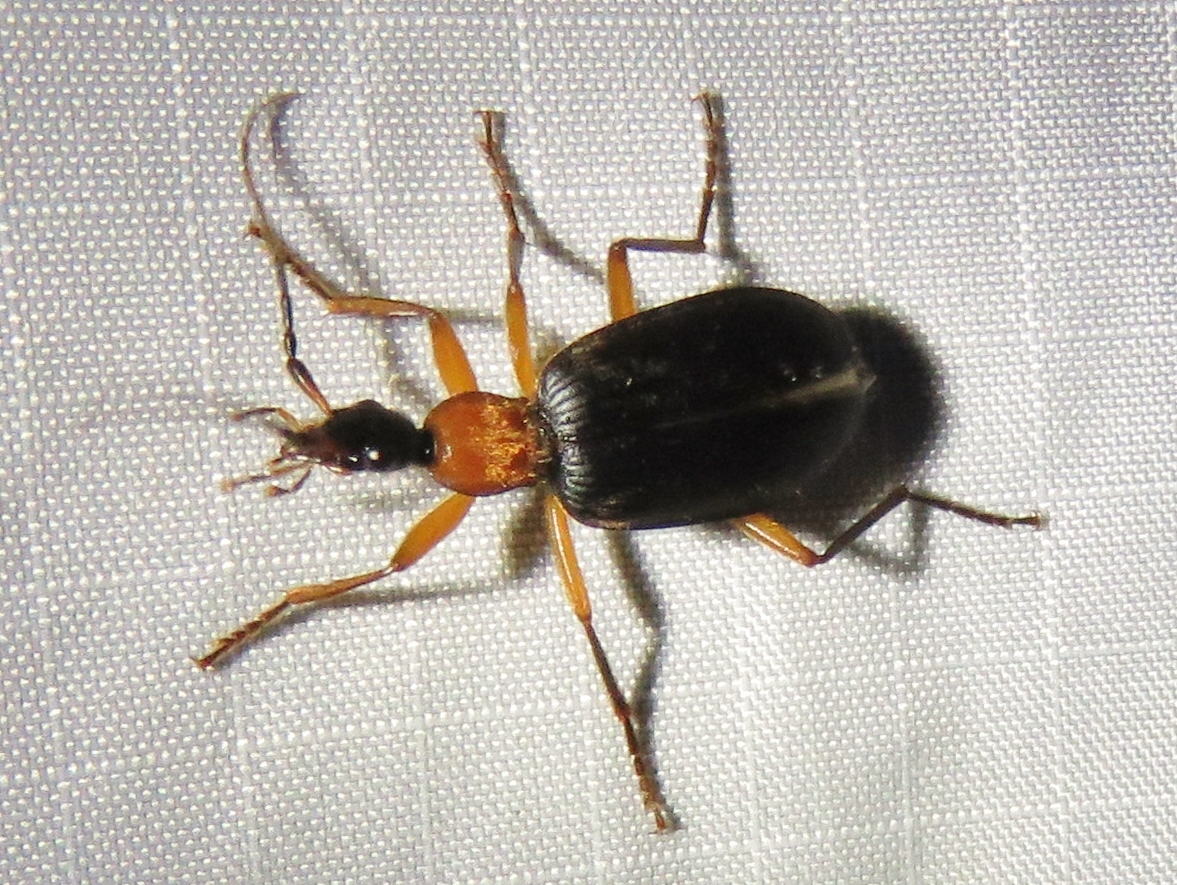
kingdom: Animalia
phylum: Arthropoda
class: Insecta
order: Coleoptera
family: Carabidae
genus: Galerita
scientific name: Galerita bicolor
